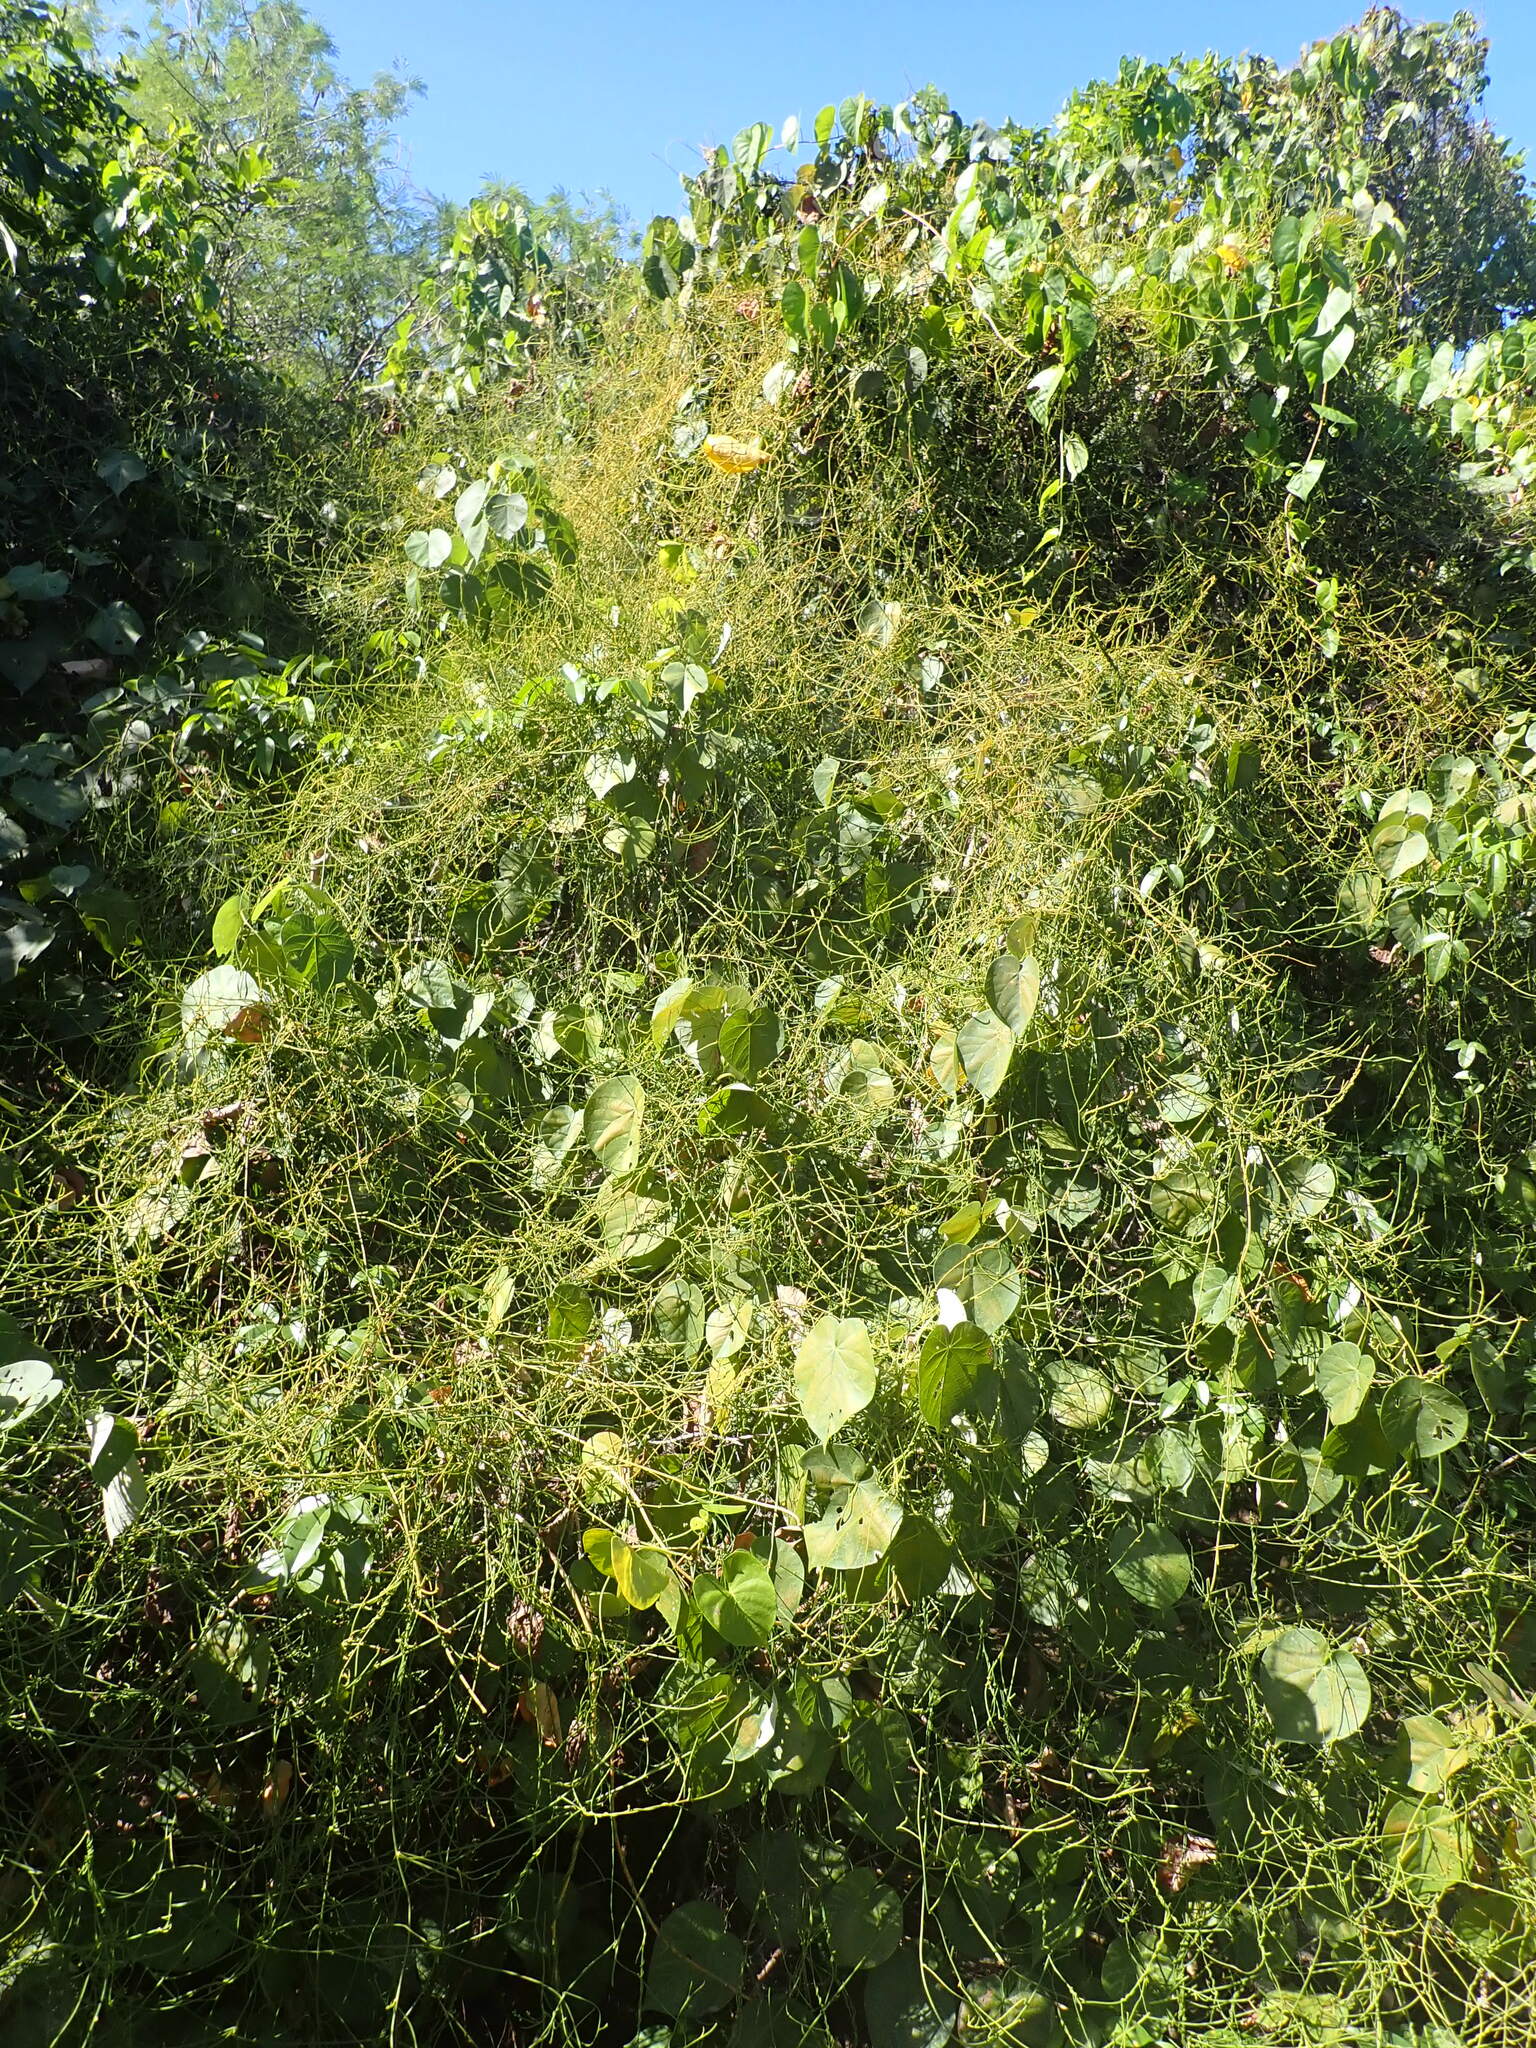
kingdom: Plantae
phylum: Tracheophyta
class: Magnoliopsida
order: Laurales
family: Lauraceae
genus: Cassytha
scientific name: Cassytha filiformis
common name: Dodder-laurel
